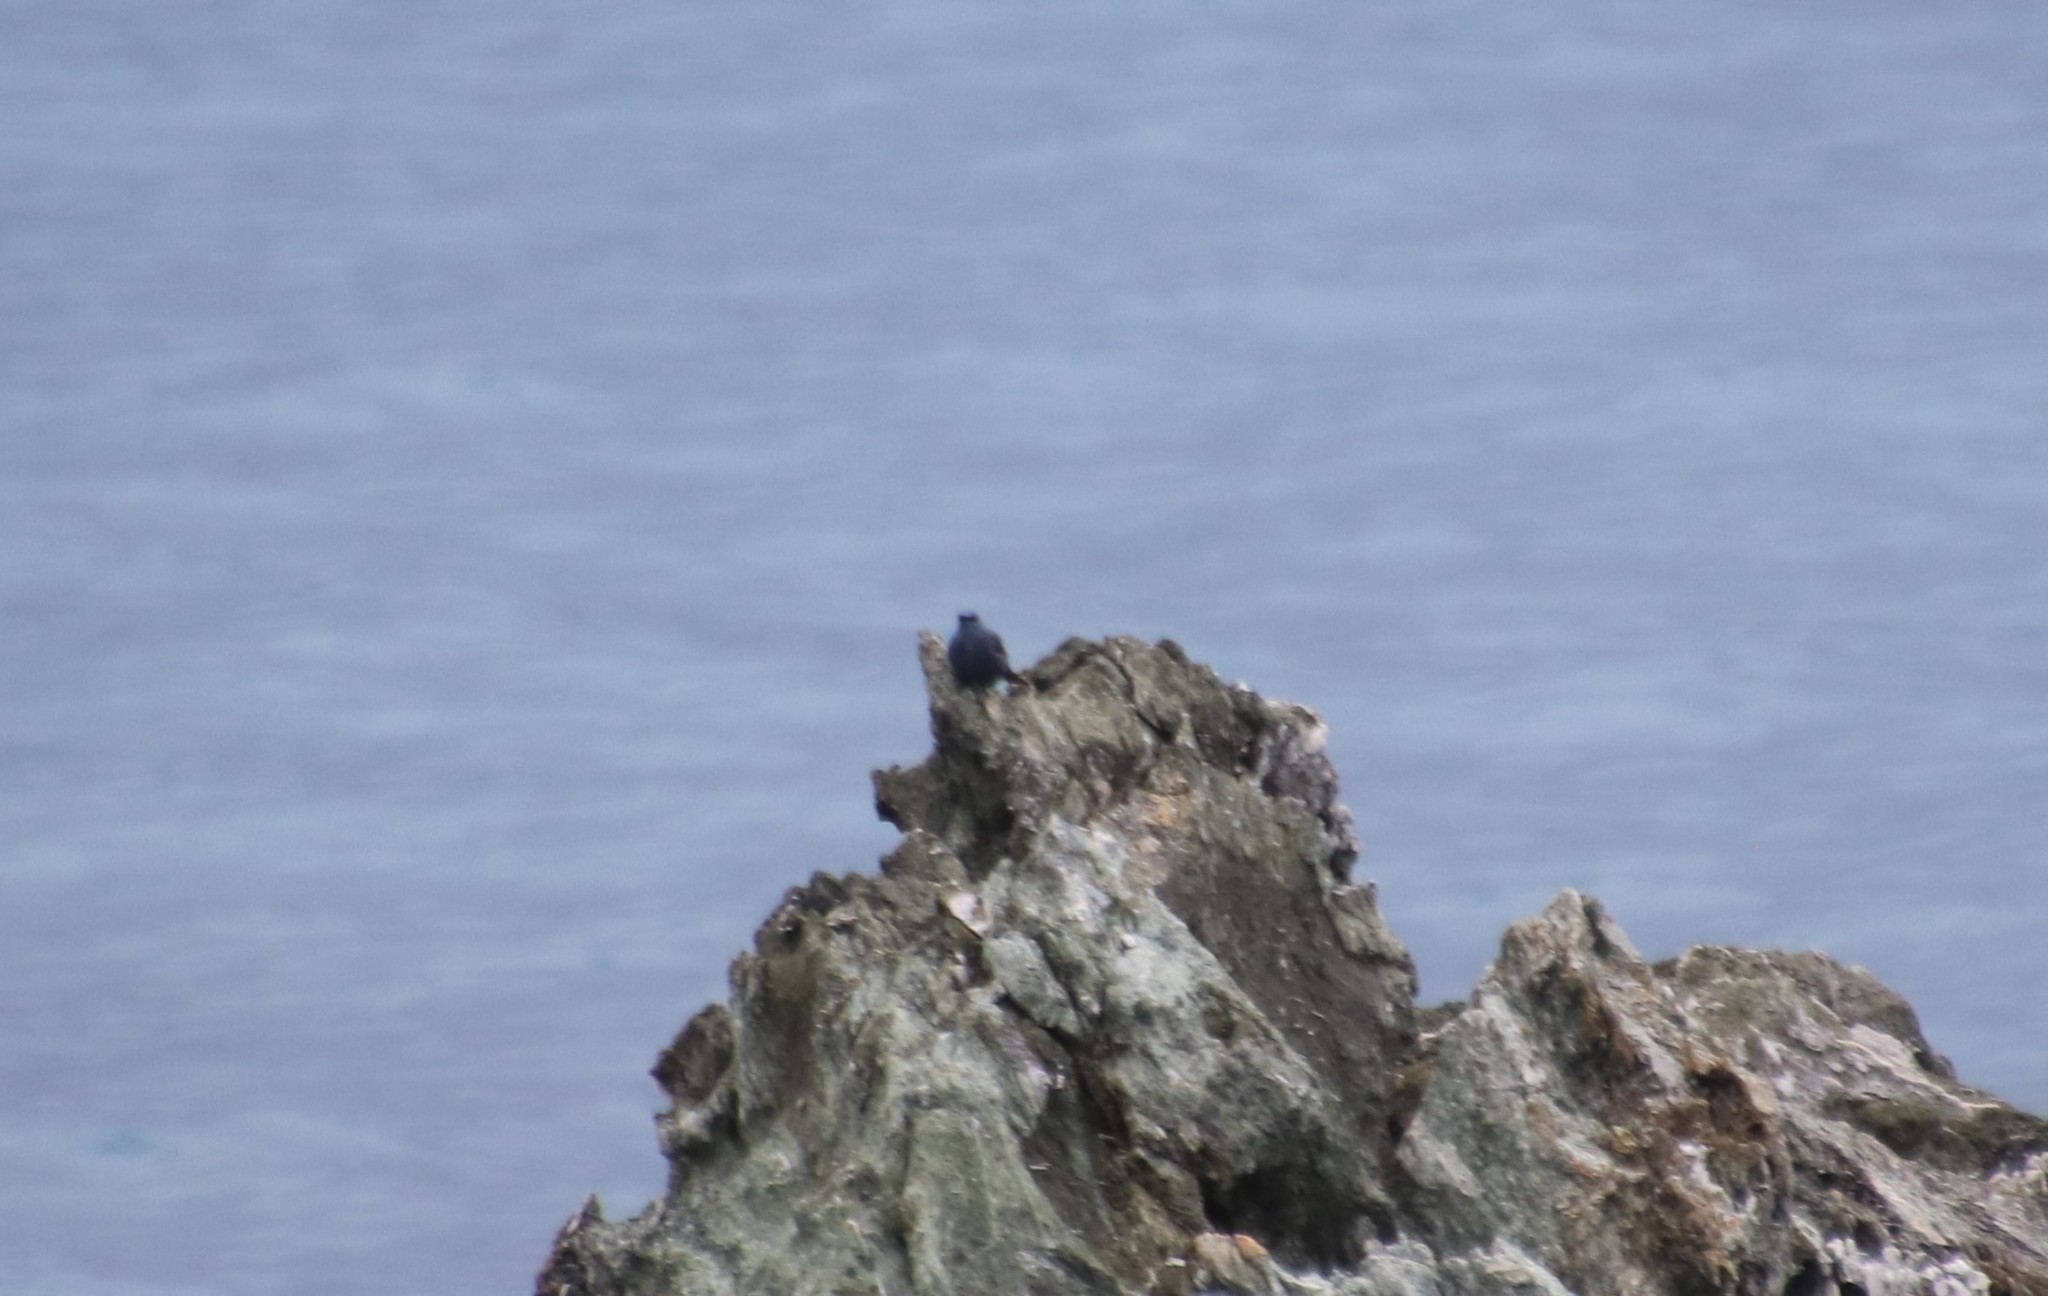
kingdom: Animalia
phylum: Chordata
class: Aves
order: Passeriformes
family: Muscicapidae
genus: Monticola
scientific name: Monticola solitarius
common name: Blue rock thrush
